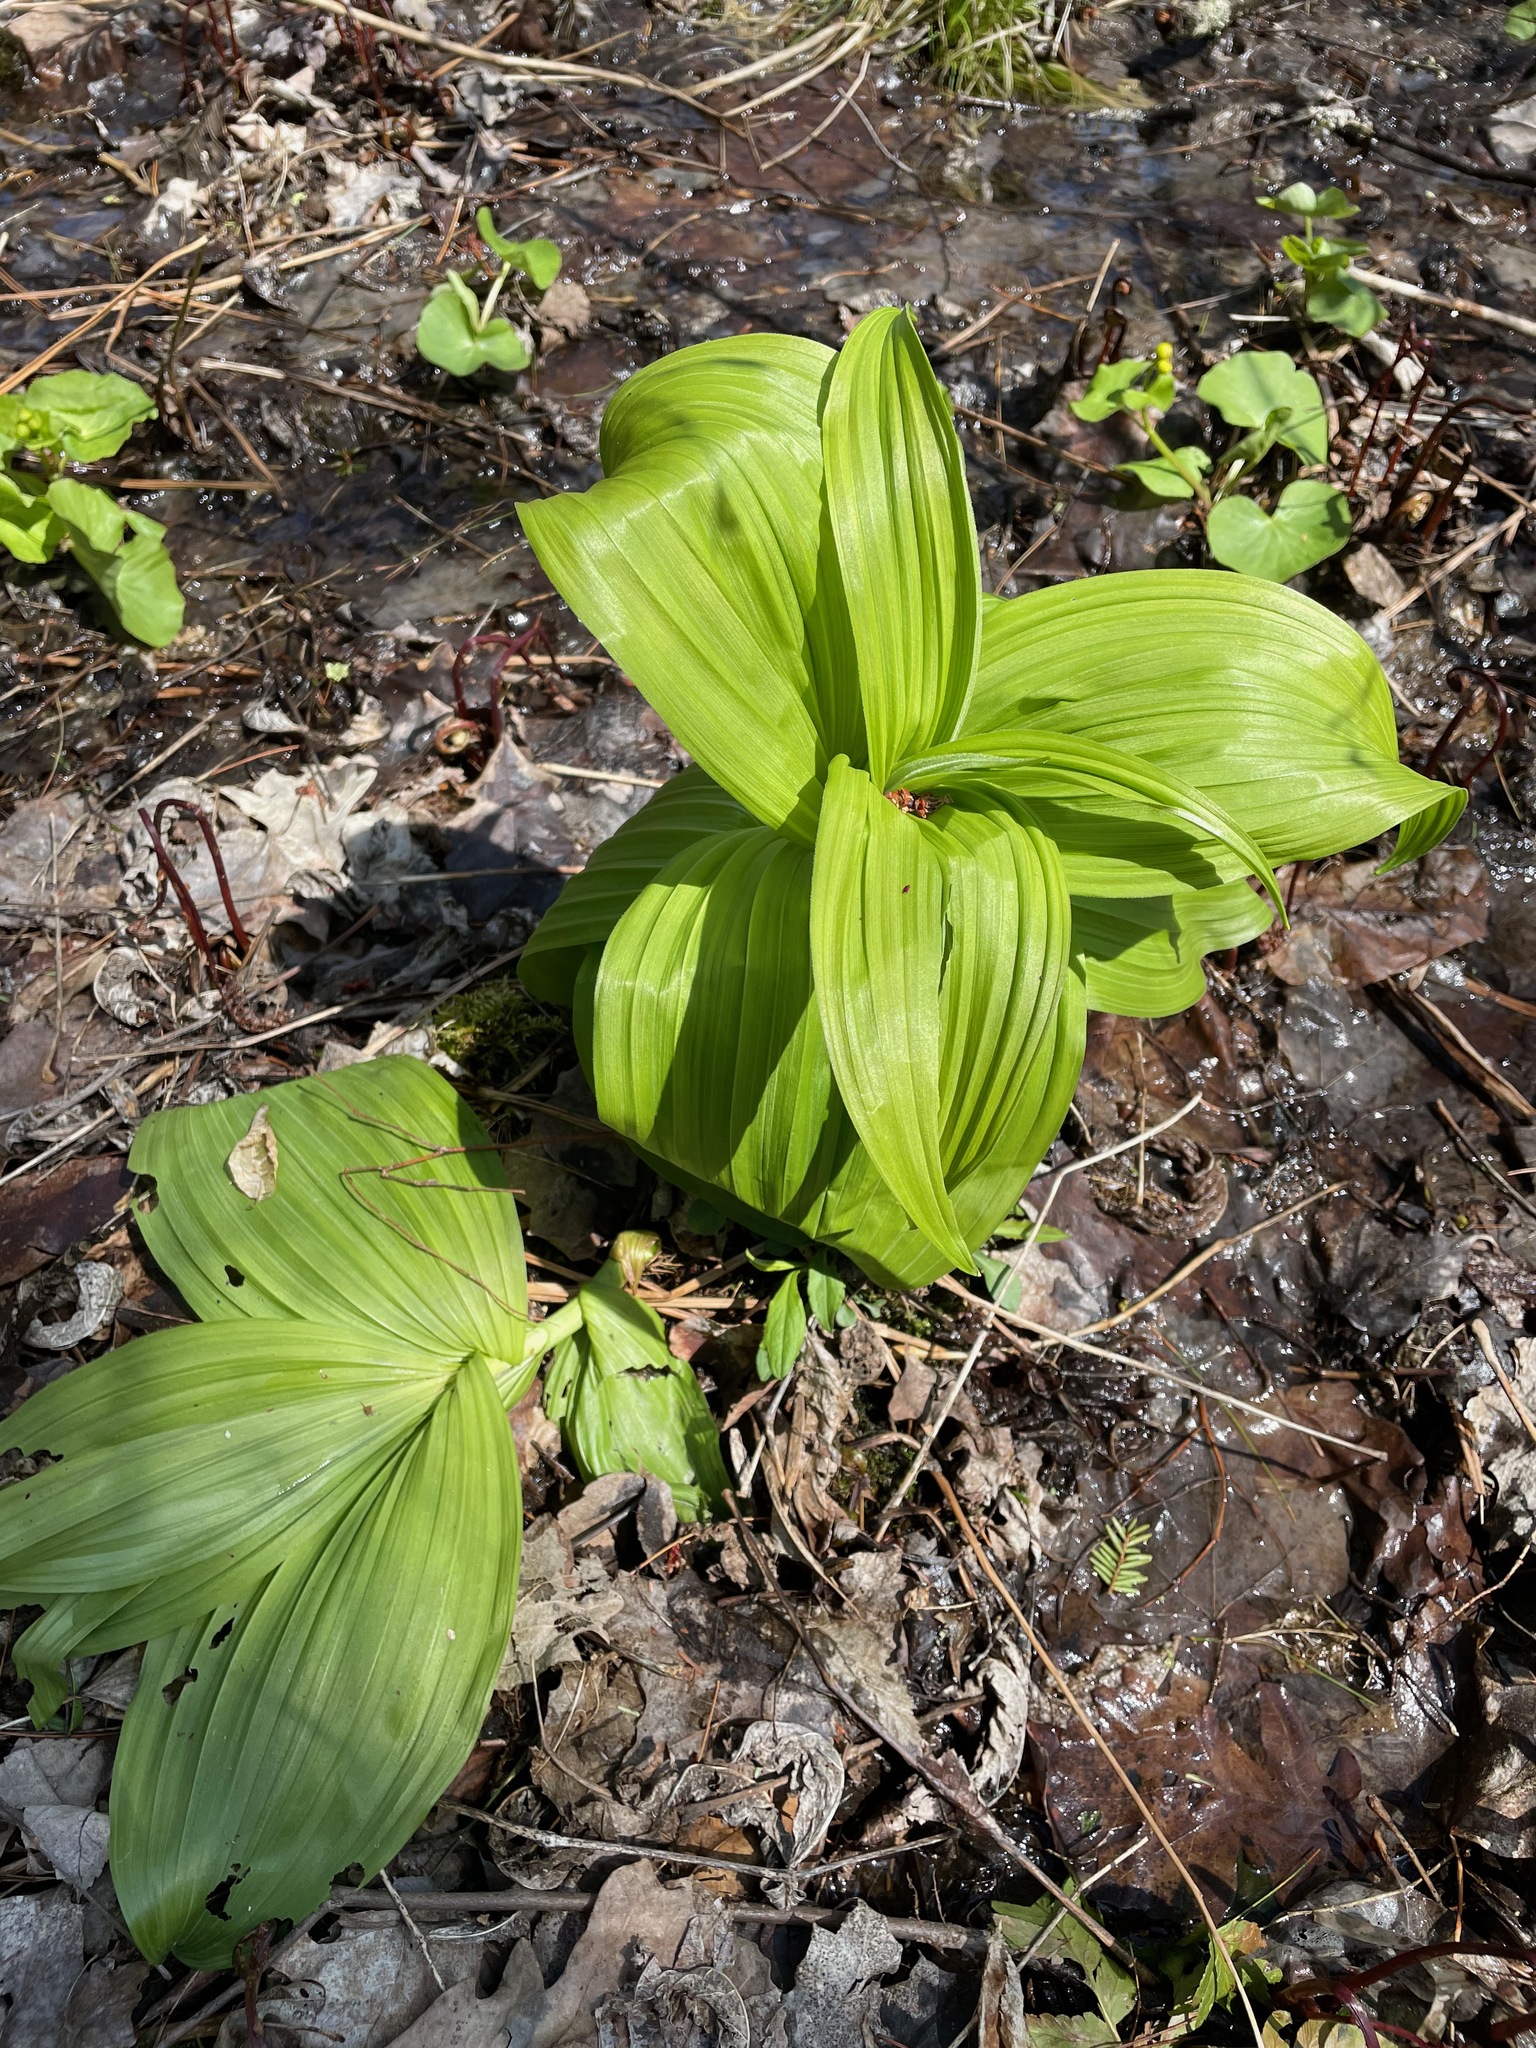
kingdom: Plantae
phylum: Tracheophyta
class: Liliopsida
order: Liliales
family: Melanthiaceae
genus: Veratrum
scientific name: Veratrum viride
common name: American false hellebore
